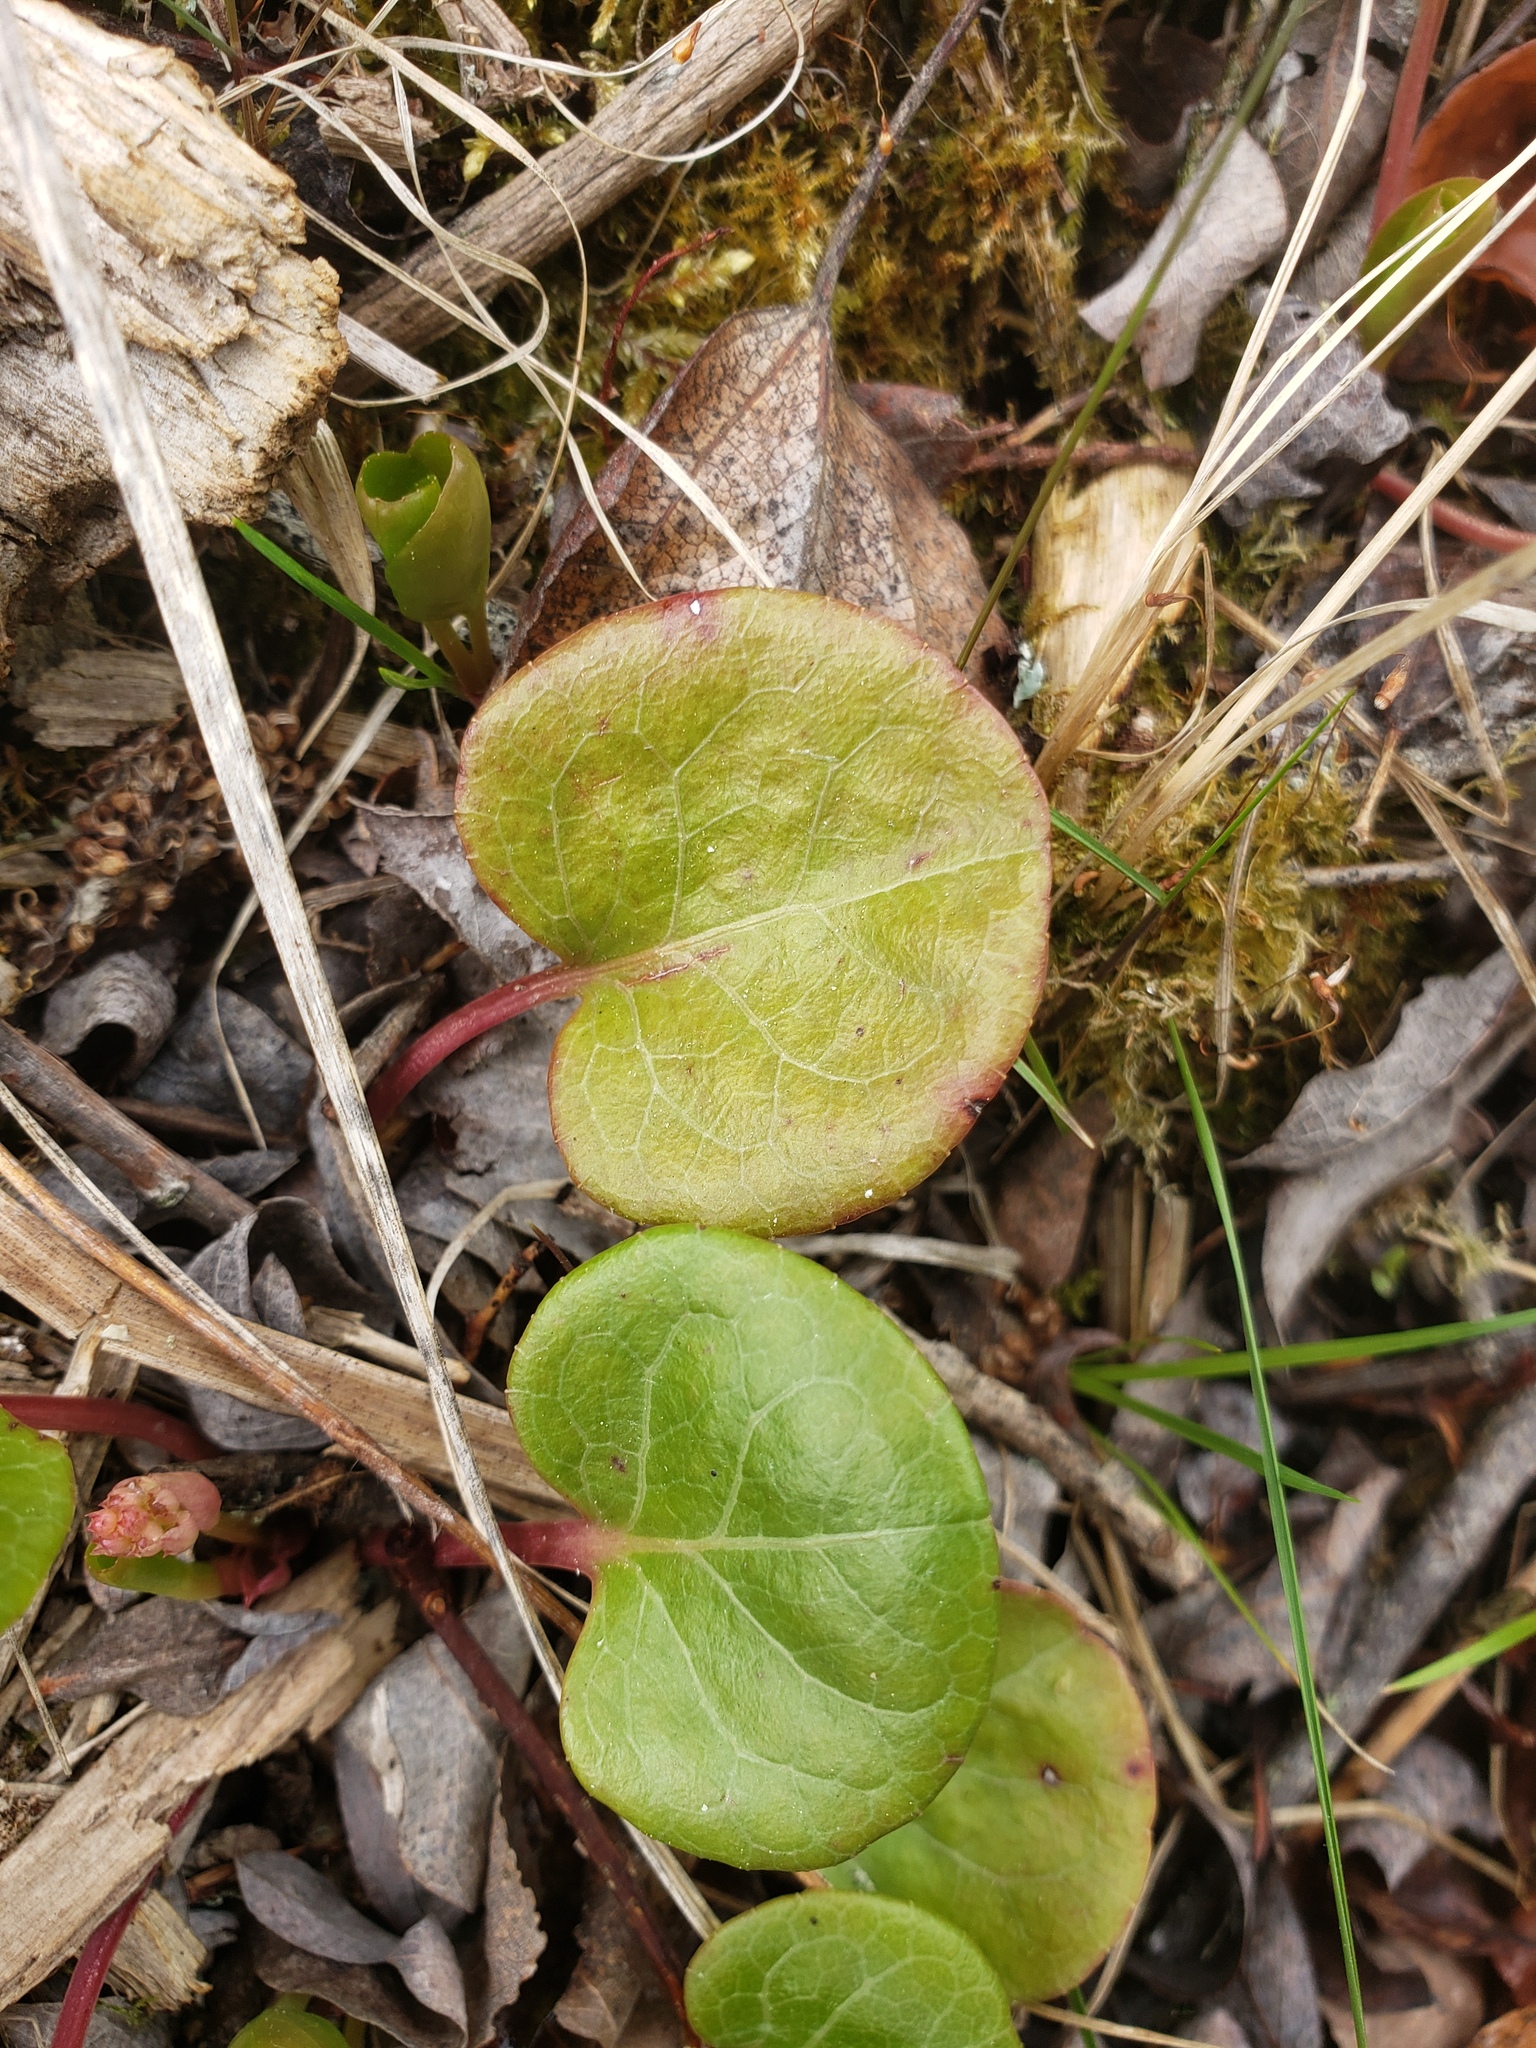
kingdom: Plantae
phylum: Tracheophyta
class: Magnoliopsida
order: Ericales
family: Ericaceae
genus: Pyrola
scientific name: Pyrola asarifolia
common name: Bog wintergreen
